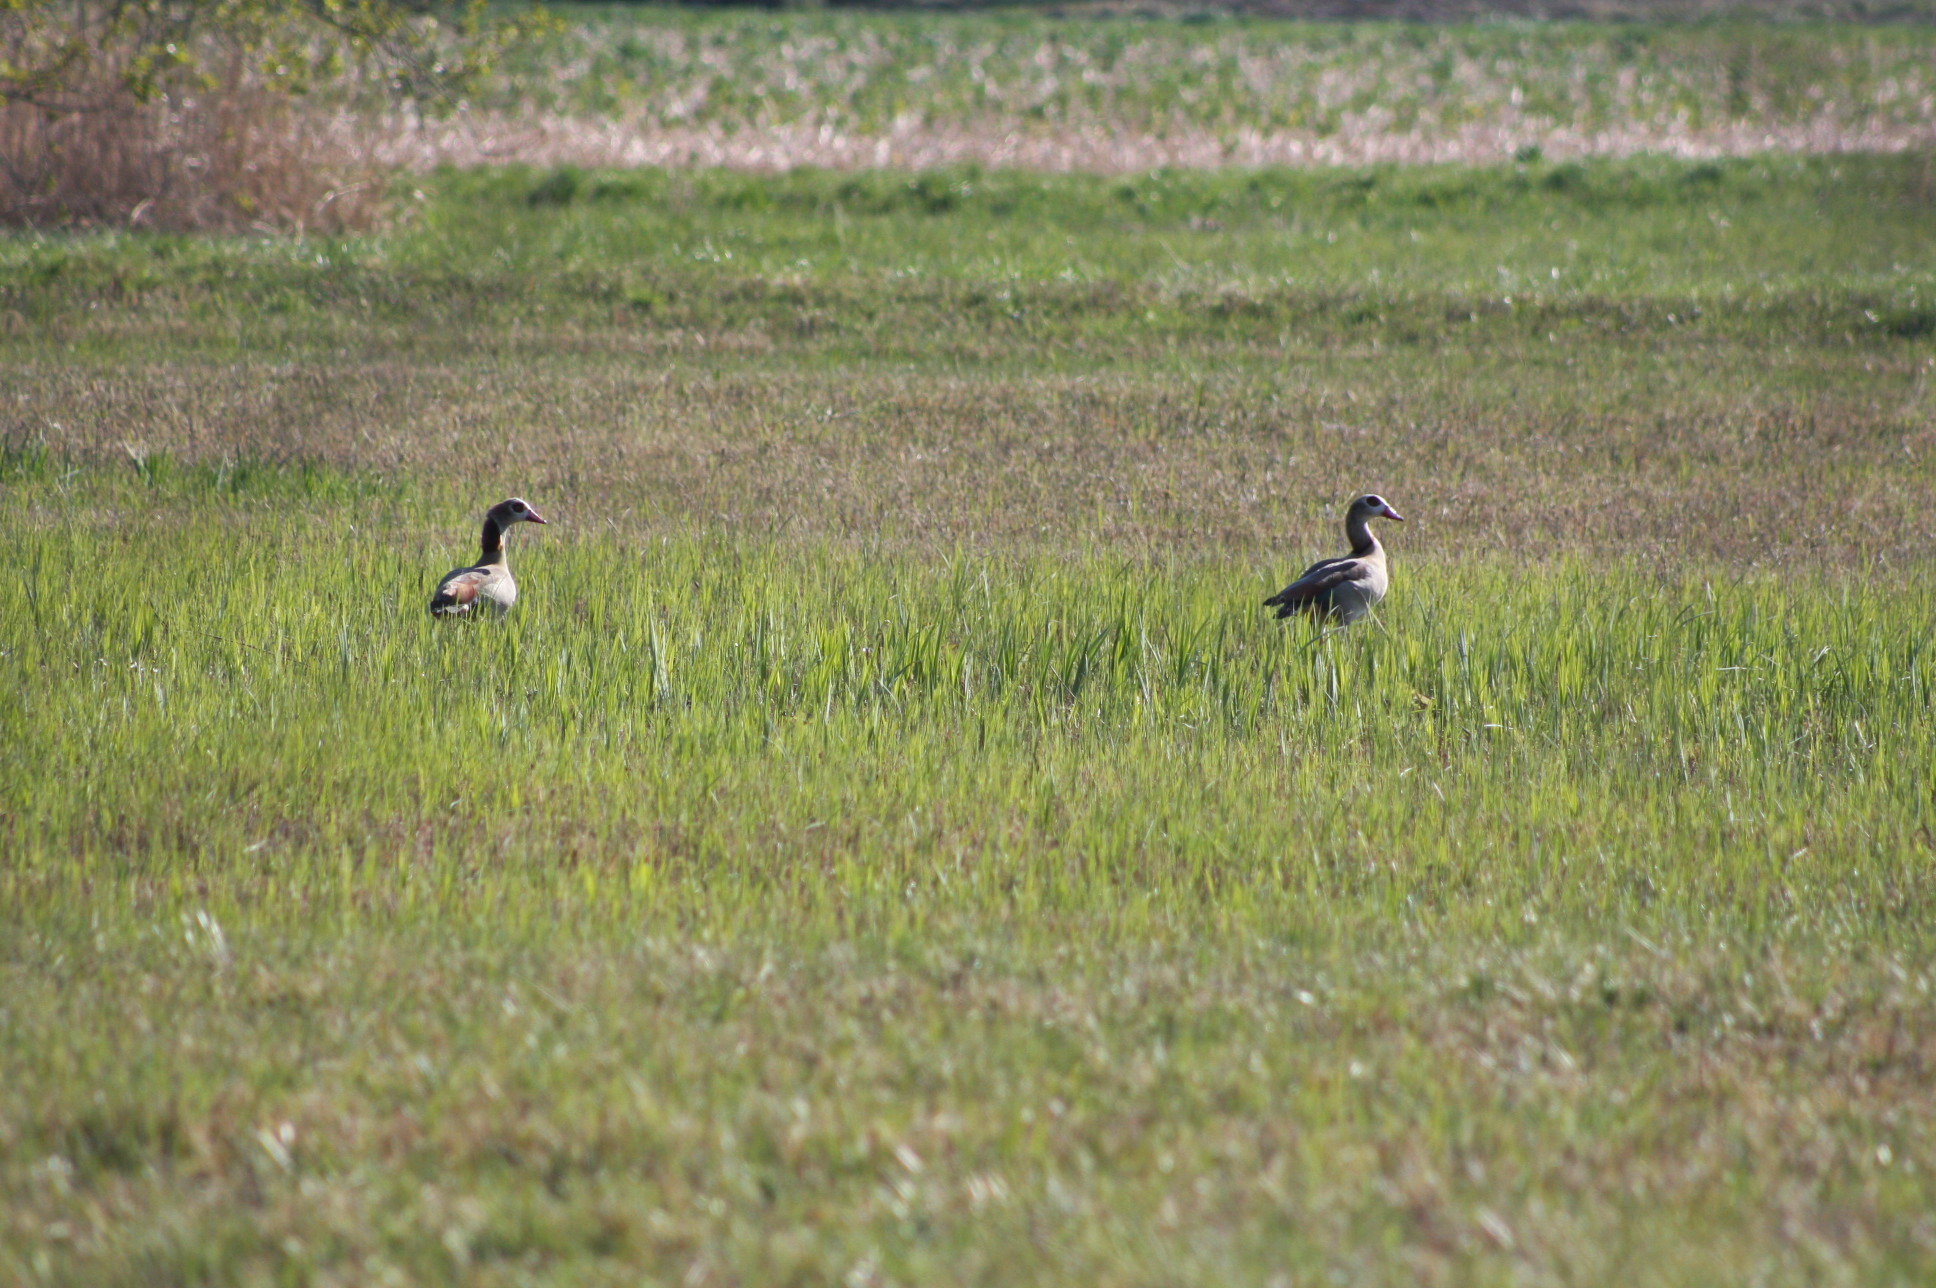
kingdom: Animalia
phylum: Chordata
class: Aves
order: Anseriformes
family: Anatidae
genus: Alopochen
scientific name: Alopochen aegyptiaca
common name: Egyptian goose
